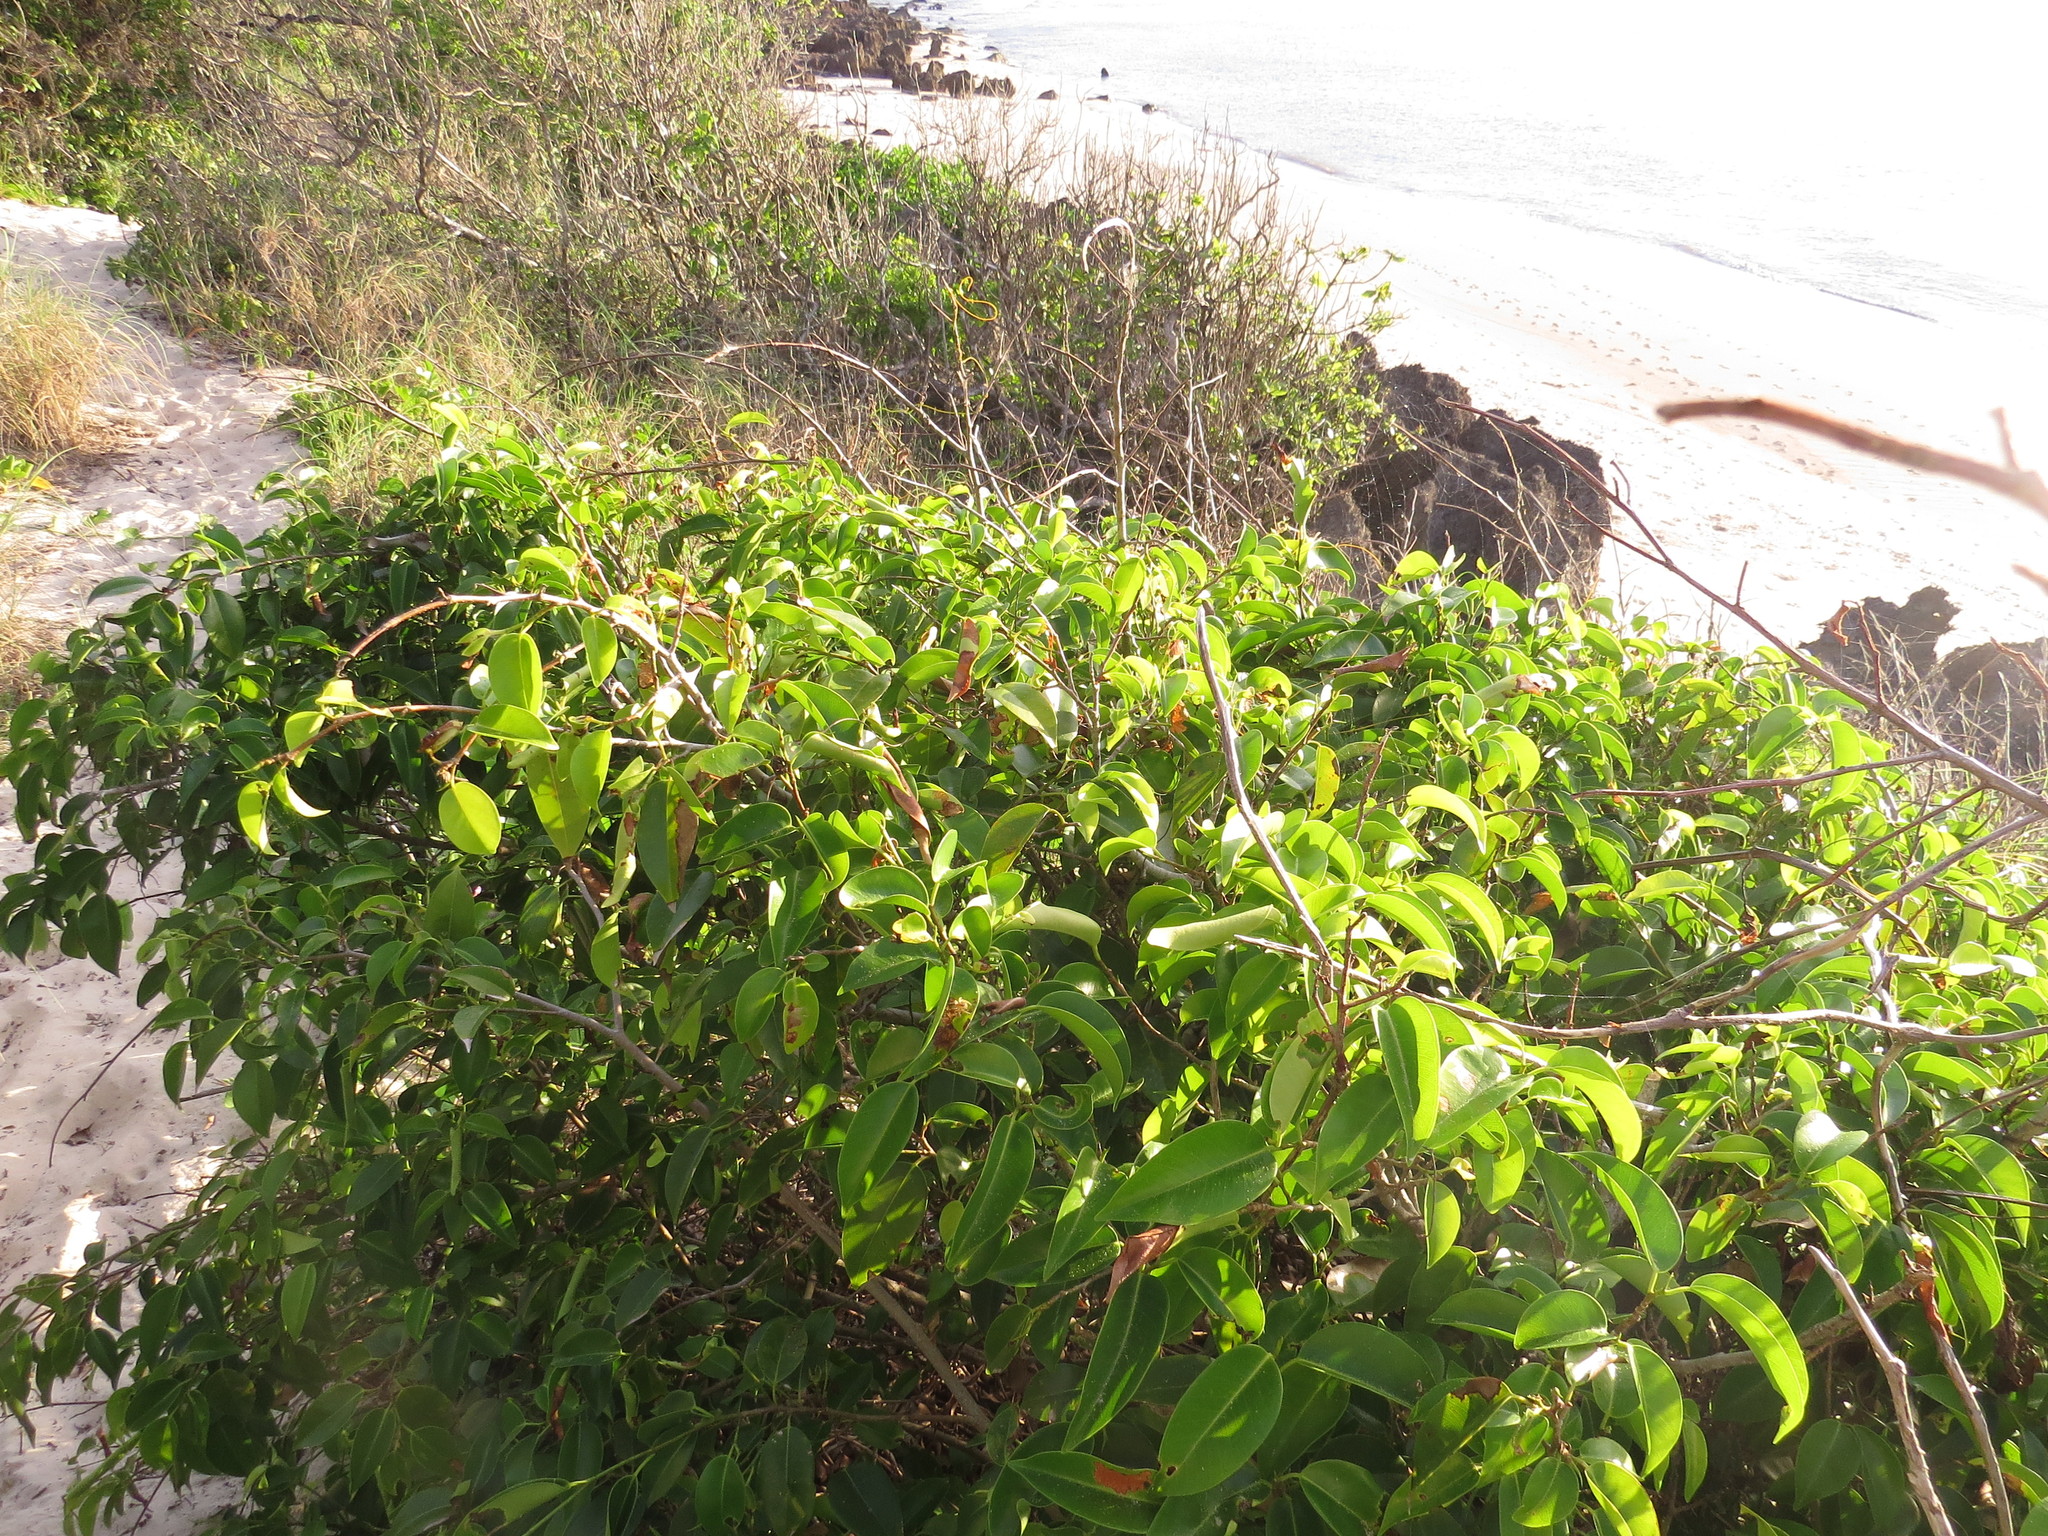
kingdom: Plantae
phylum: Tracheophyta
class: Magnoliopsida
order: Rosales
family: Moraceae
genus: Ficus
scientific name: Ficus benjamina
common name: Weeping fig
